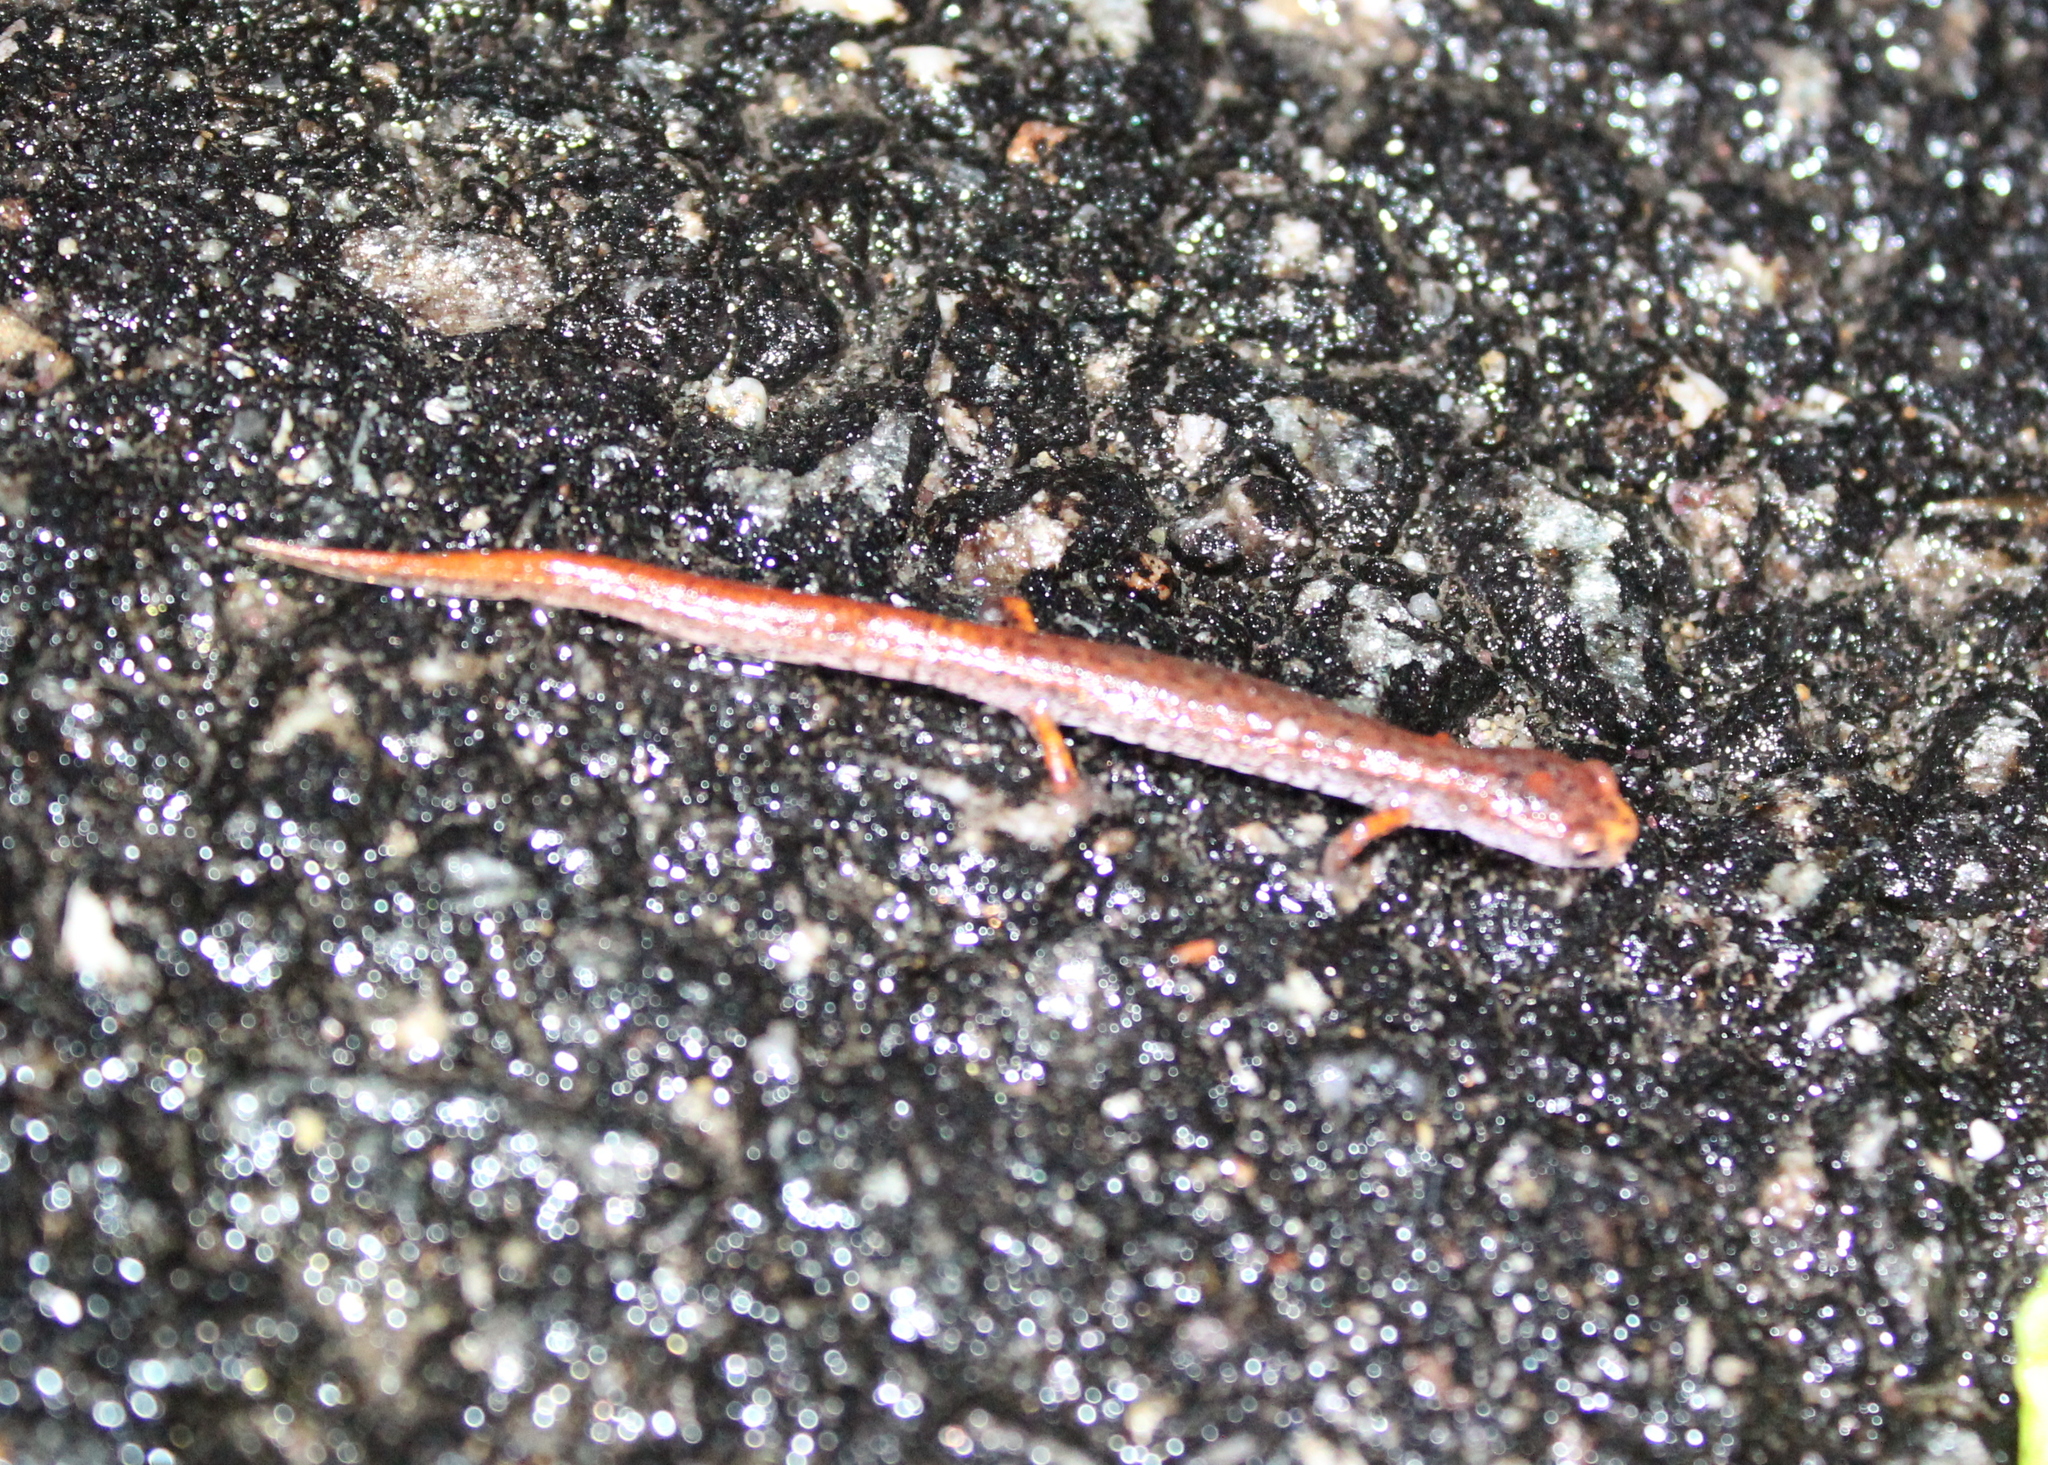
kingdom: Animalia
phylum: Chordata
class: Amphibia
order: Caudata
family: Plethodontidae
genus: Hemidactylium
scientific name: Hemidactylium scutatum
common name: Four-toed salamander
